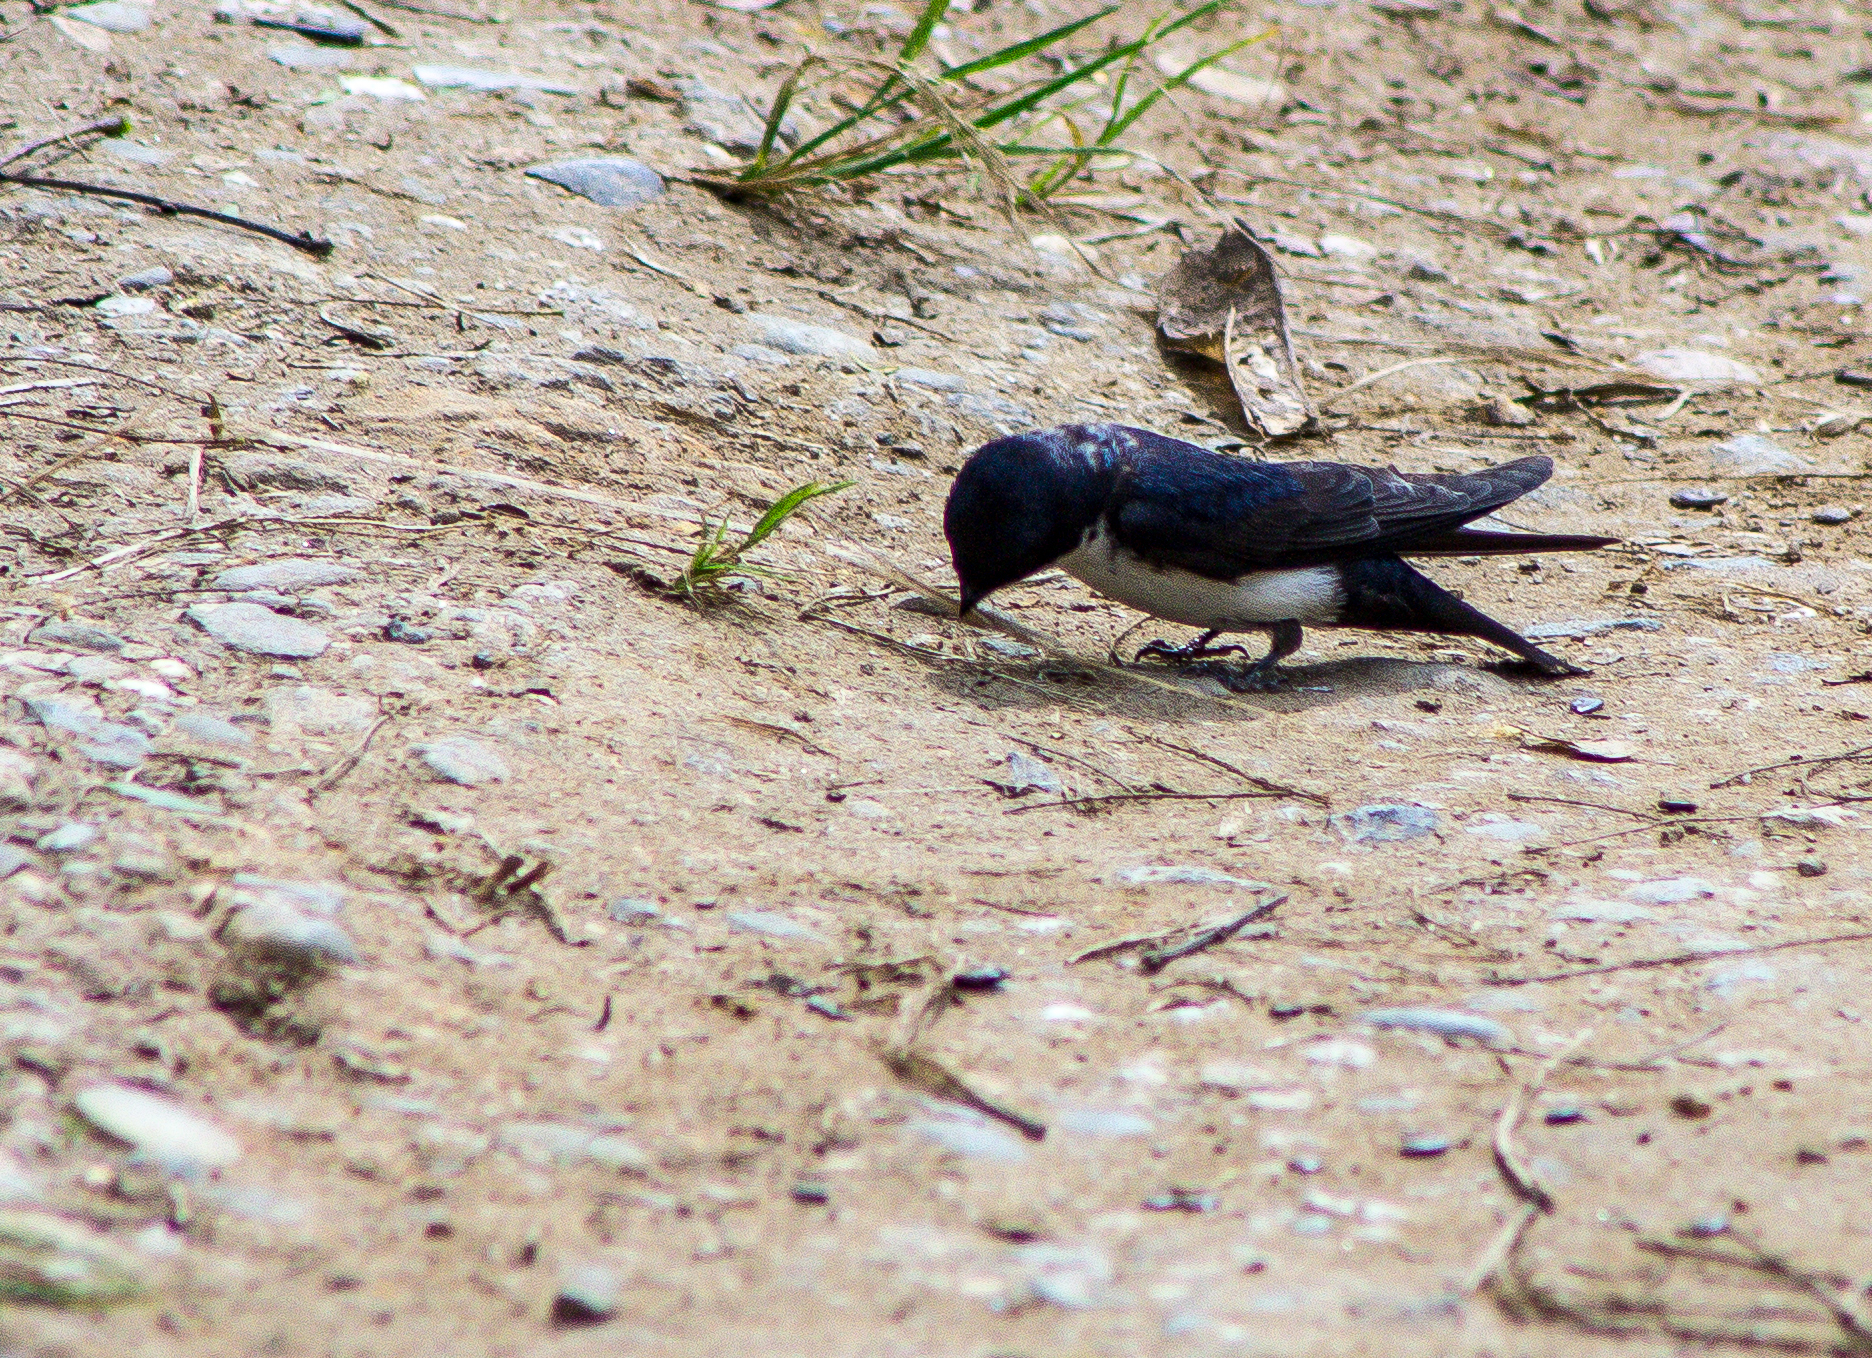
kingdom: Animalia
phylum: Chordata
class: Aves
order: Passeriformes
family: Hirundinidae
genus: Notiochelidon
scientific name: Notiochelidon cyanoleuca
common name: Blue-and-white swallow
